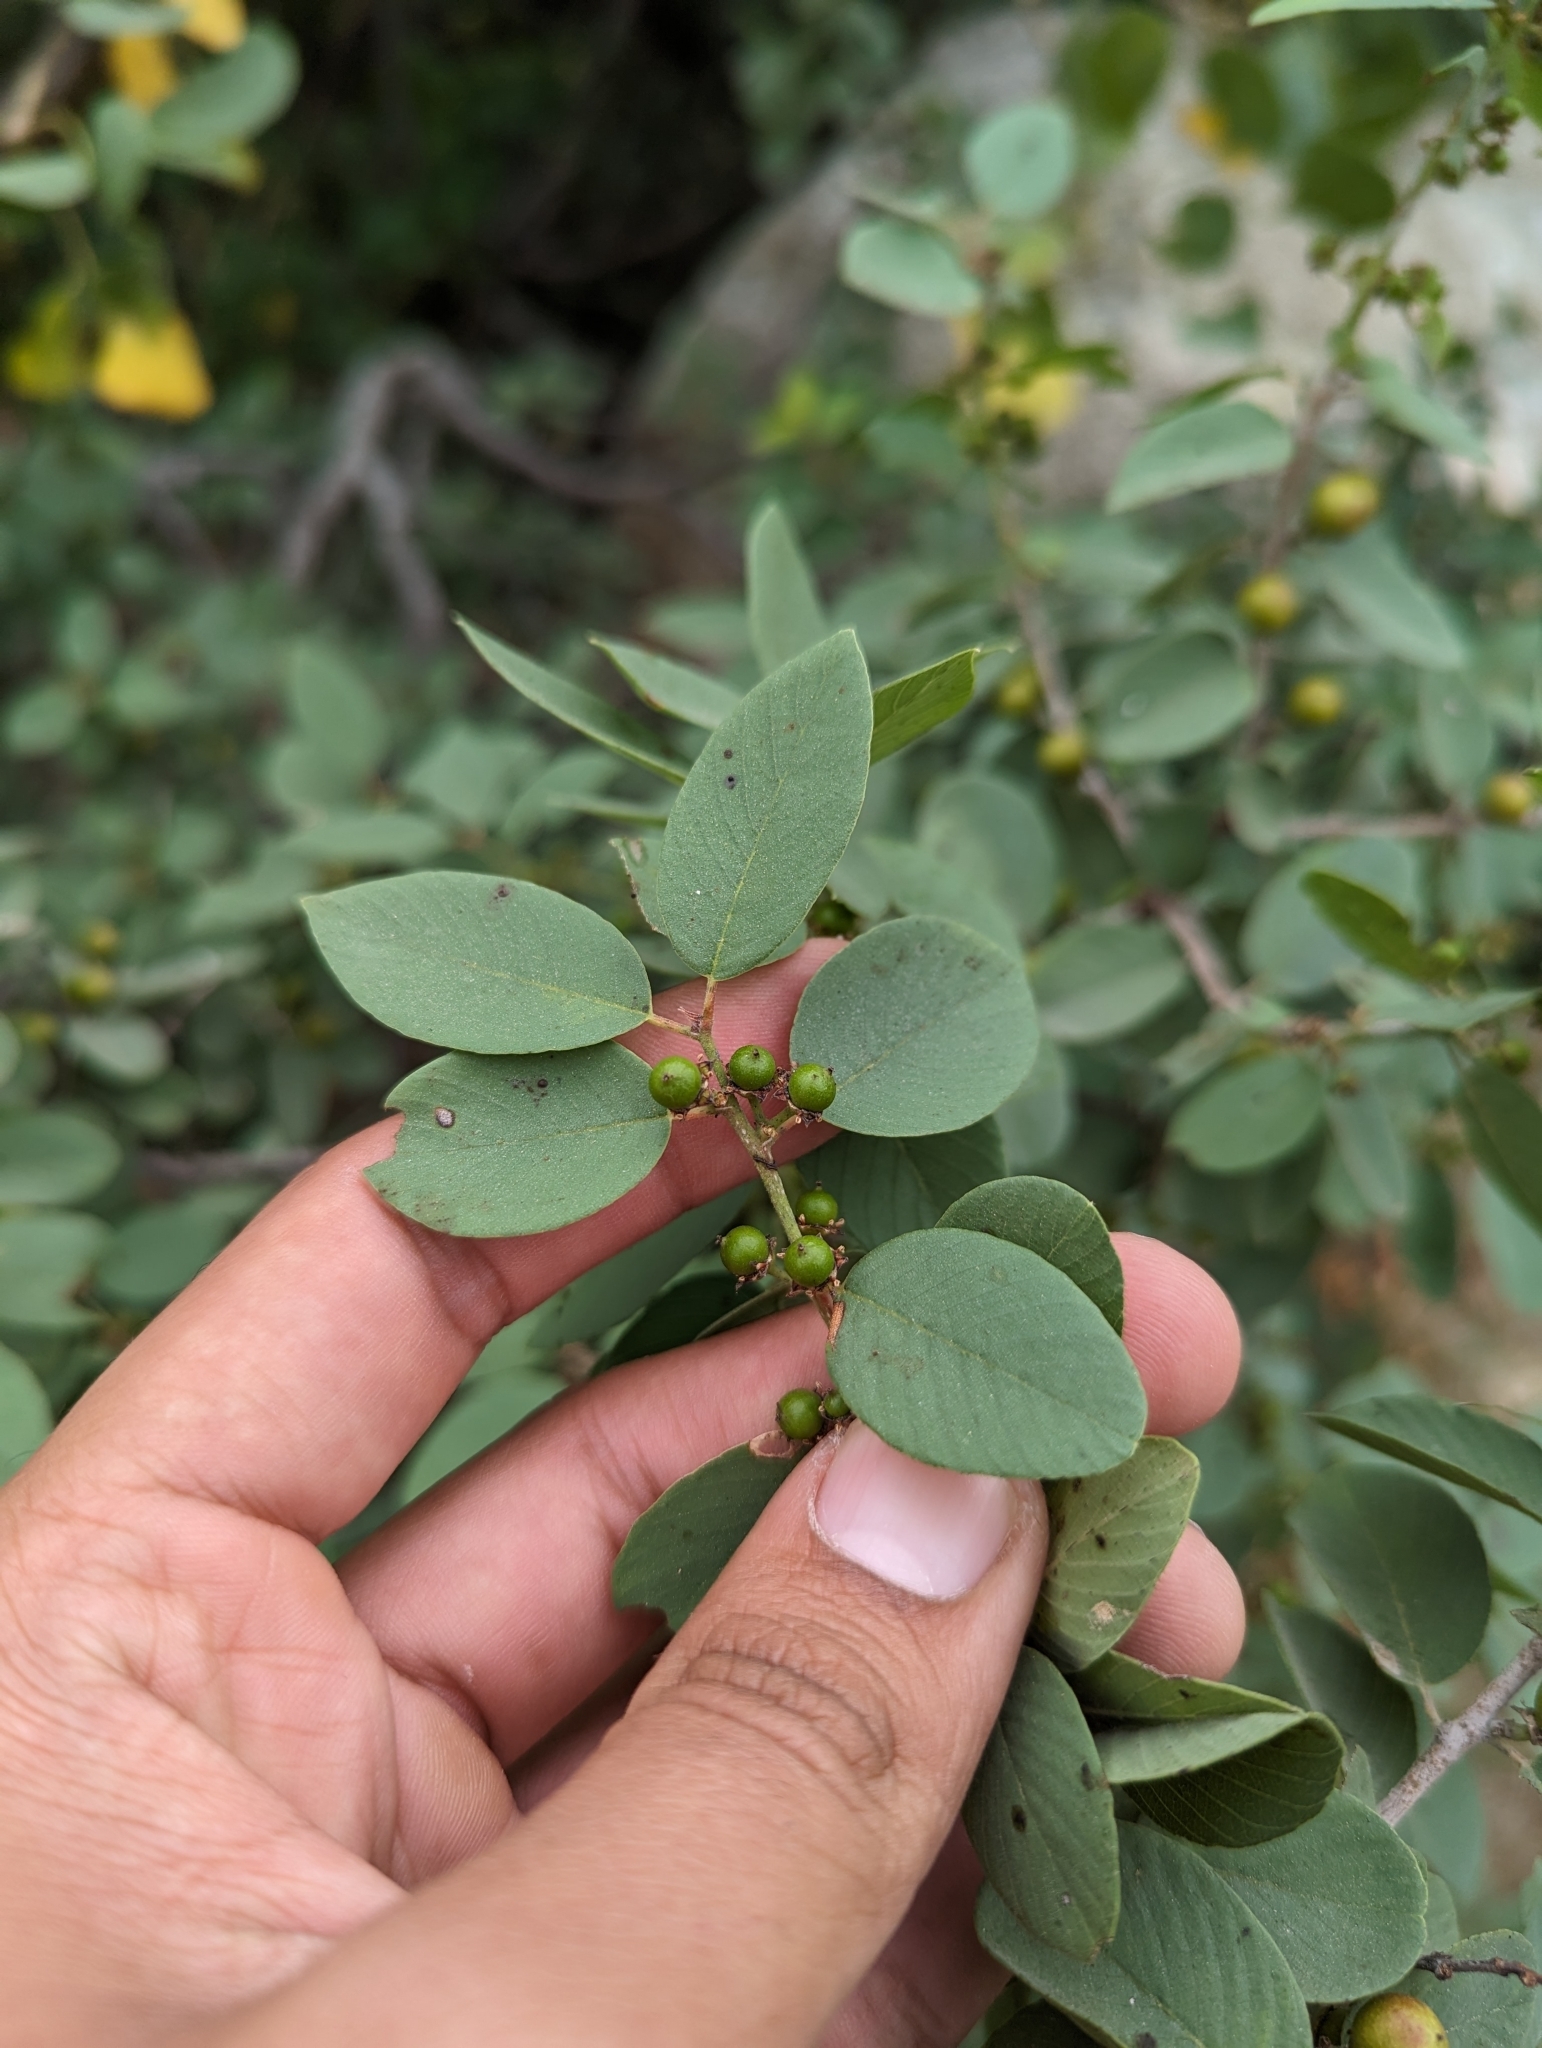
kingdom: Plantae
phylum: Tracheophyta
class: Magnoliopsida
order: Rosales
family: Rhamnaceae
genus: Karwinskia
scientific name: Karwinskia humboldtiana
